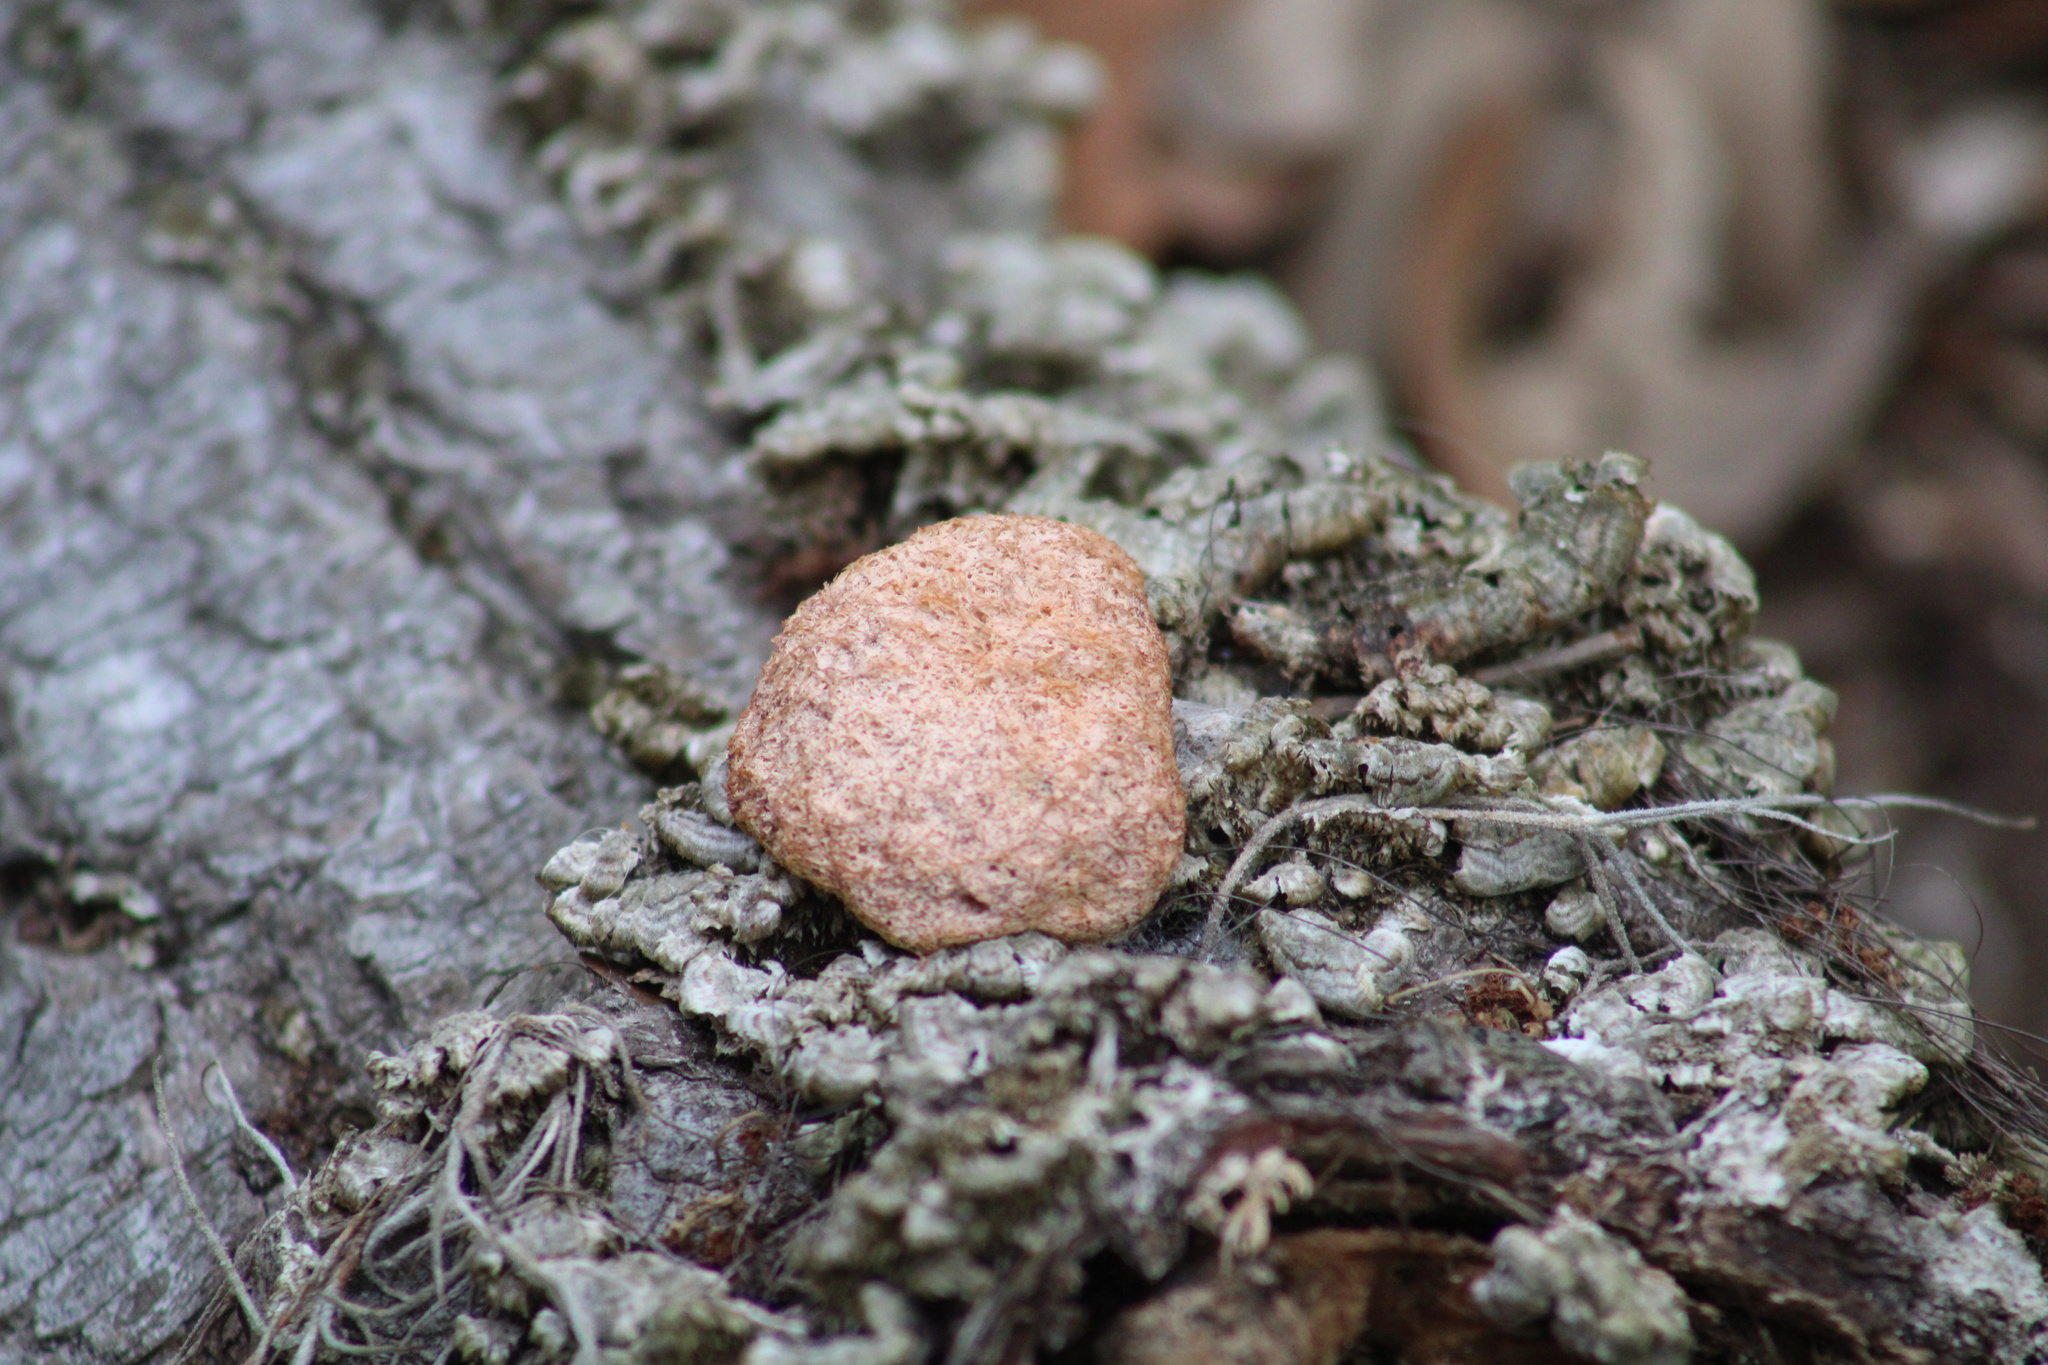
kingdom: Protozoa
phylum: Mycetozoa
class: Myxomycetes
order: Physarales
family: Physaraceae
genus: Fuligo
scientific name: Fuligo septica
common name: Dog vomit slime mold
